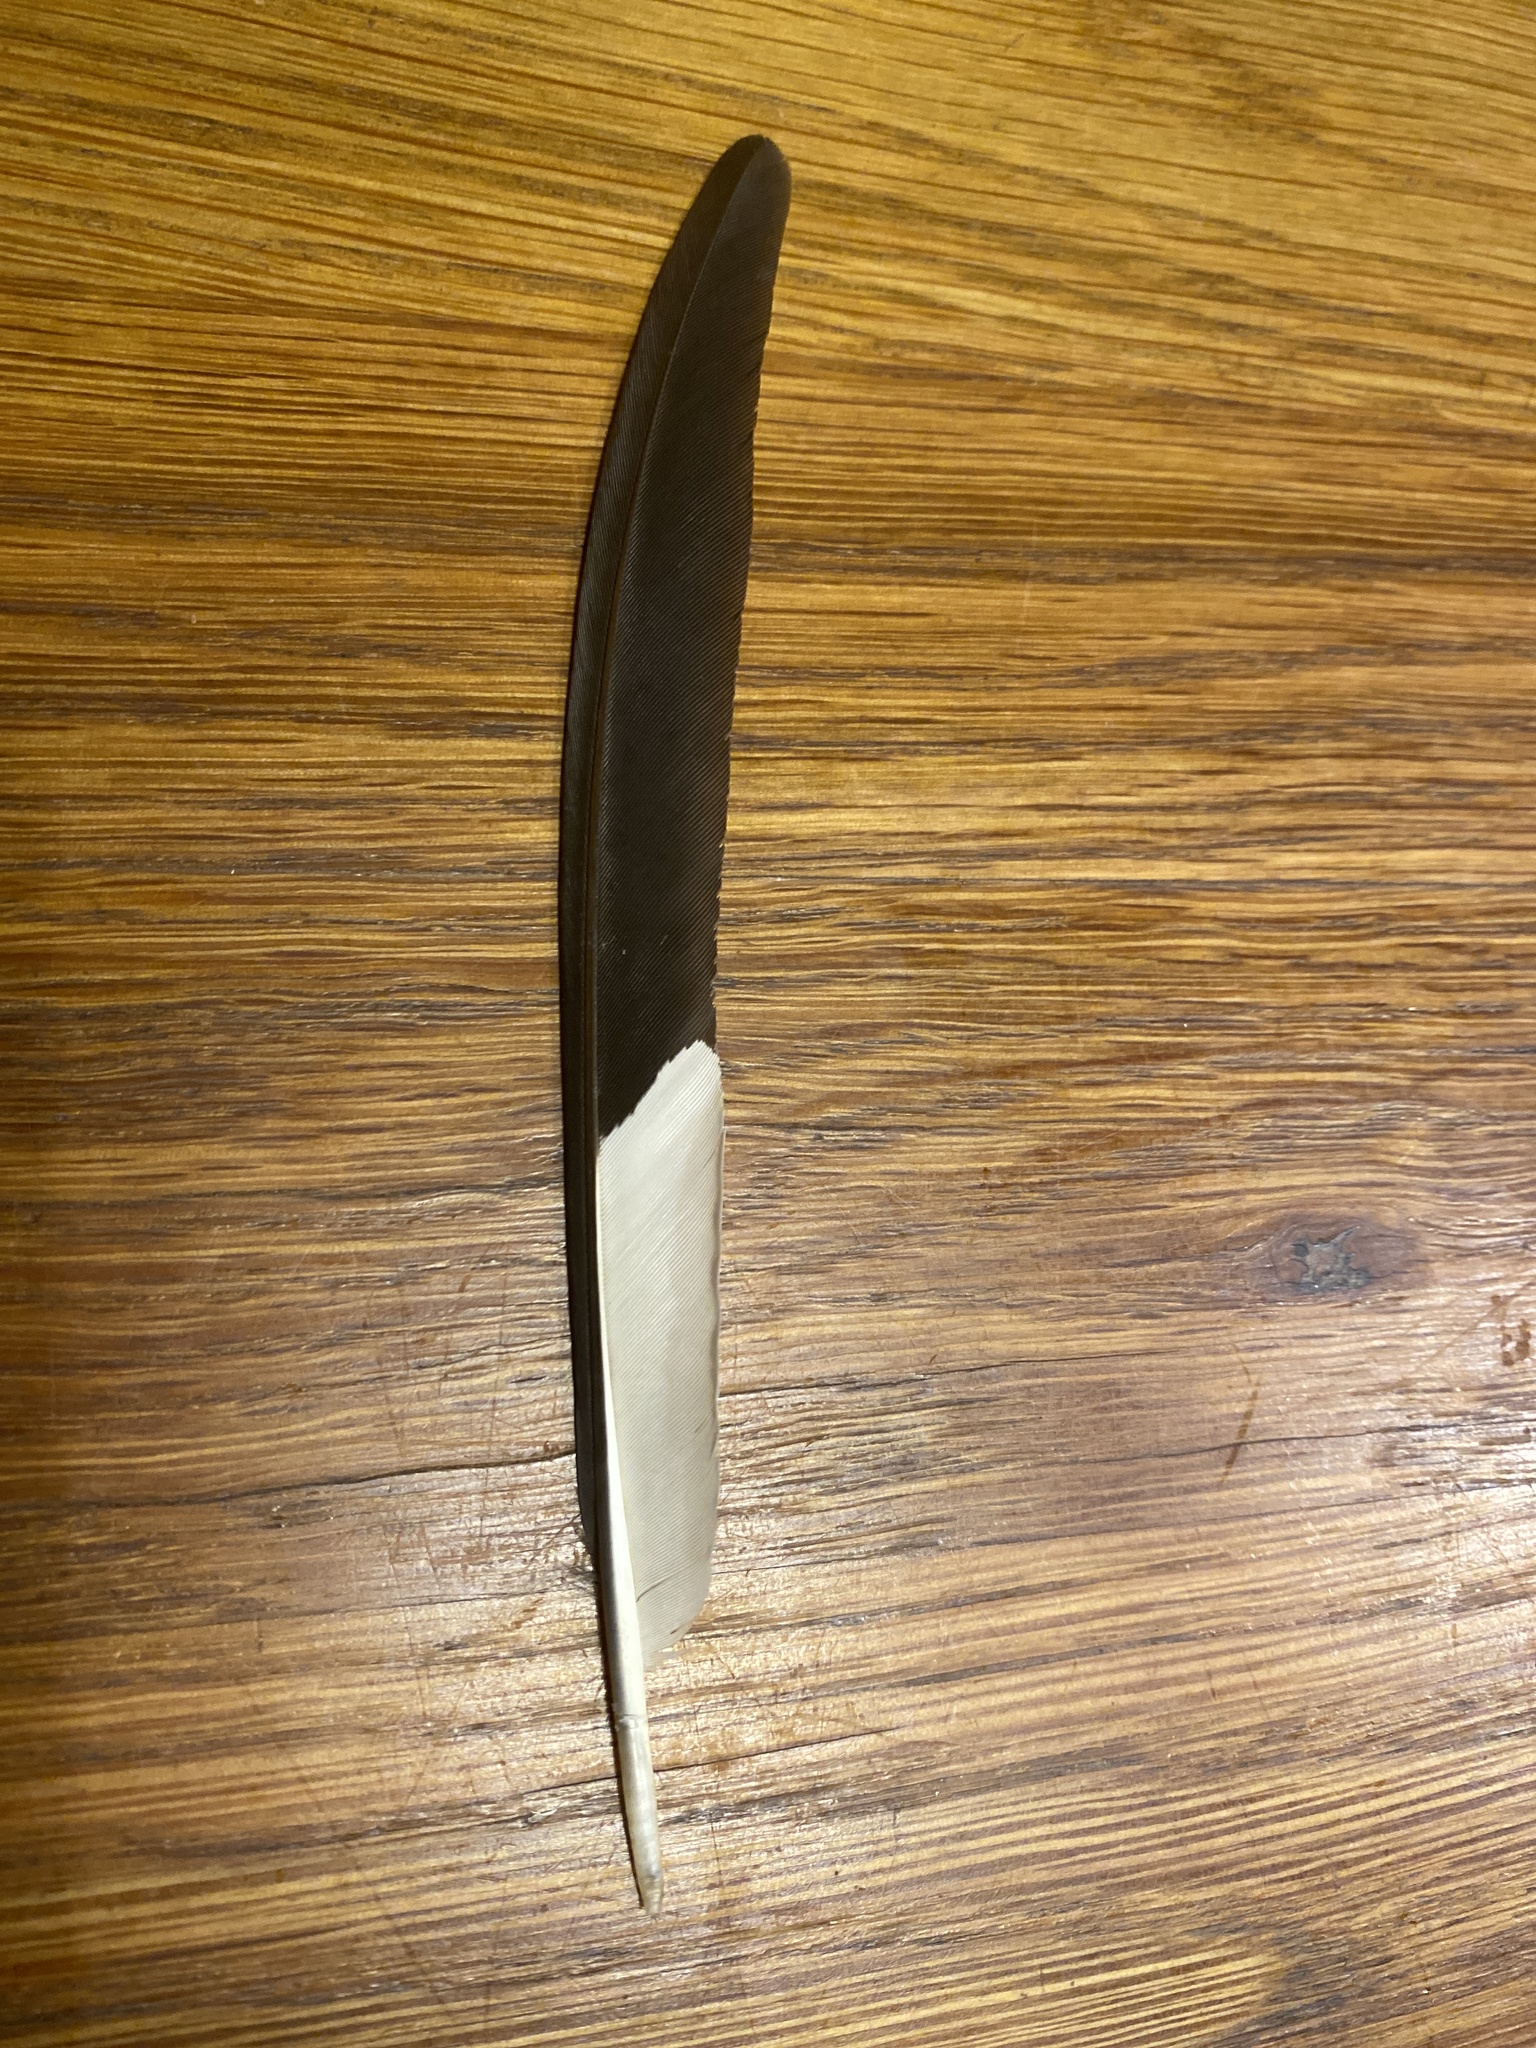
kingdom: Animalia
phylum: Chordata
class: Aves
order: Piciformes
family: Picidae
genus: Dryocopus
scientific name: Dryocopus pileatus
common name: Pileated woodpecker
